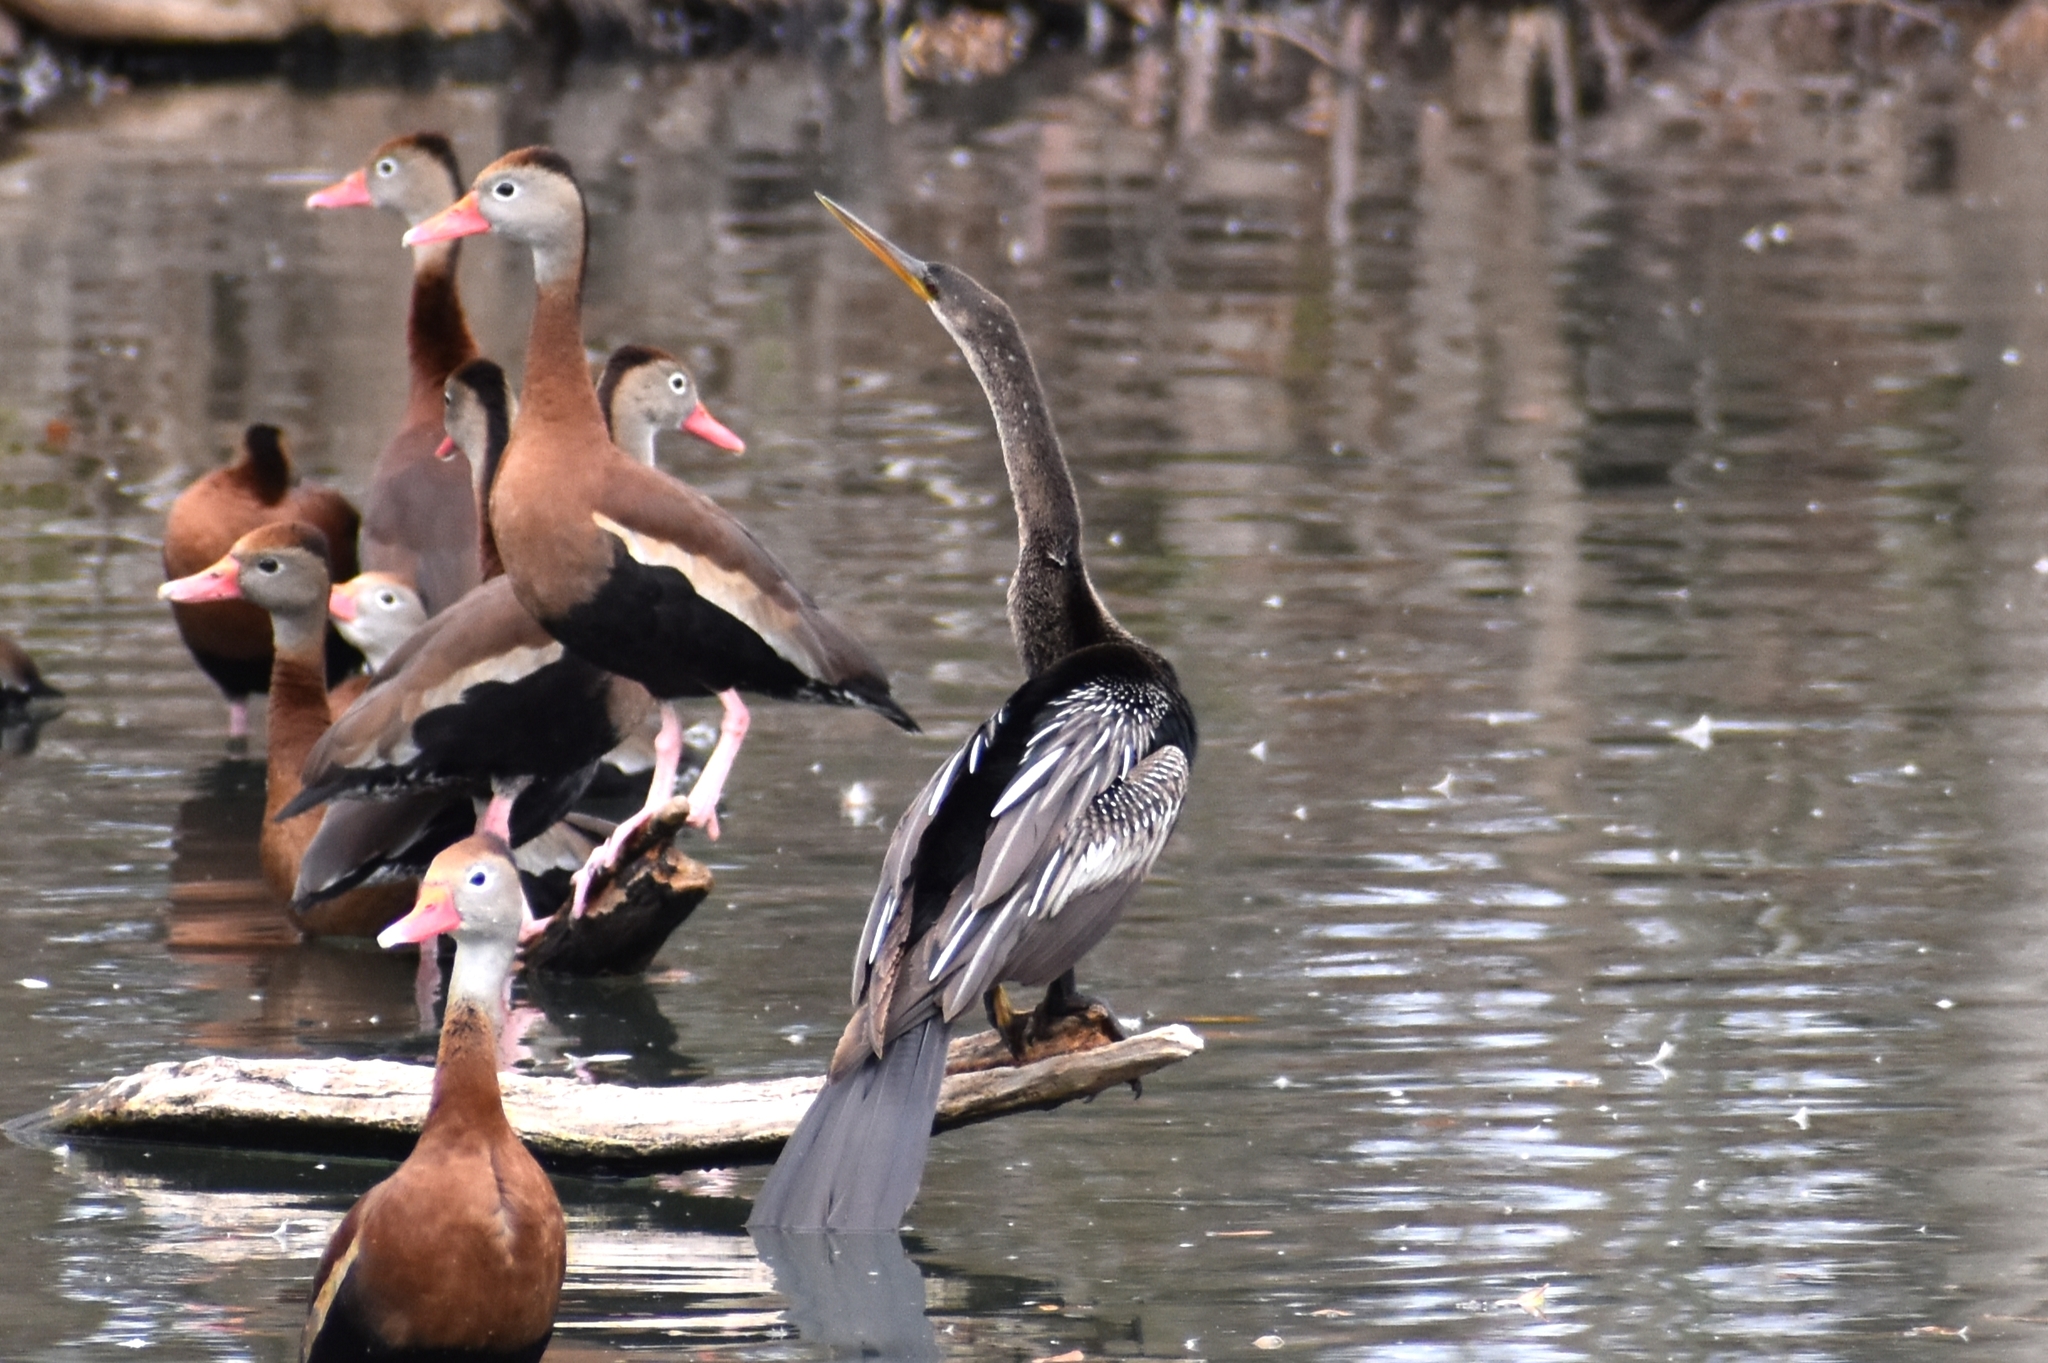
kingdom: Animalia
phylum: Chordata
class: Aves
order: Suliformes
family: Anhingidae
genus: Anhinga
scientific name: Anhinga anhinga
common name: Anhinga
